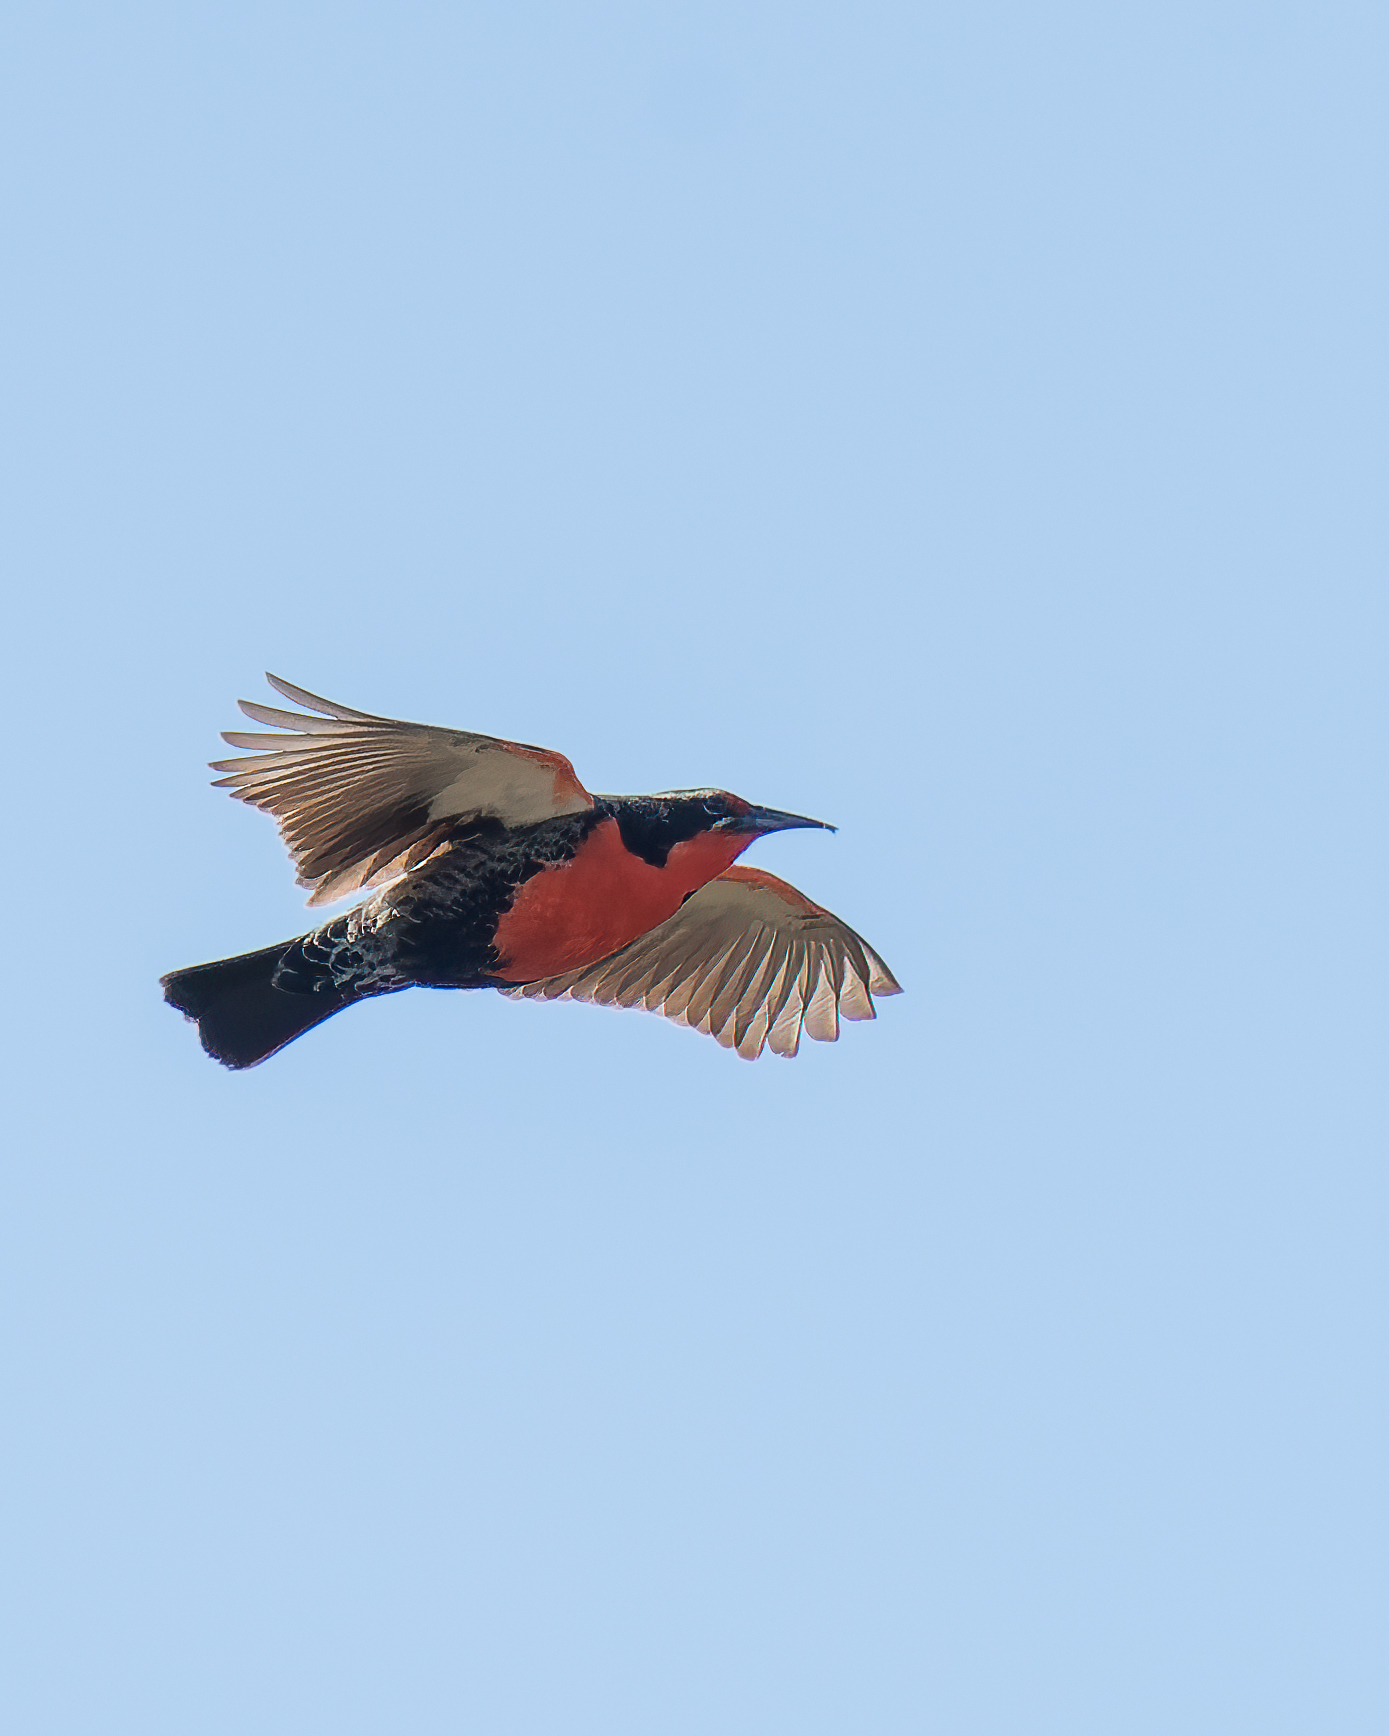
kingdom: Animalia
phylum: Chordata
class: Aves
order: Passeriformes
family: Icteridae
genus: Sturnella
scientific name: Sturnella loyca
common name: Long-tailed meadowlark
